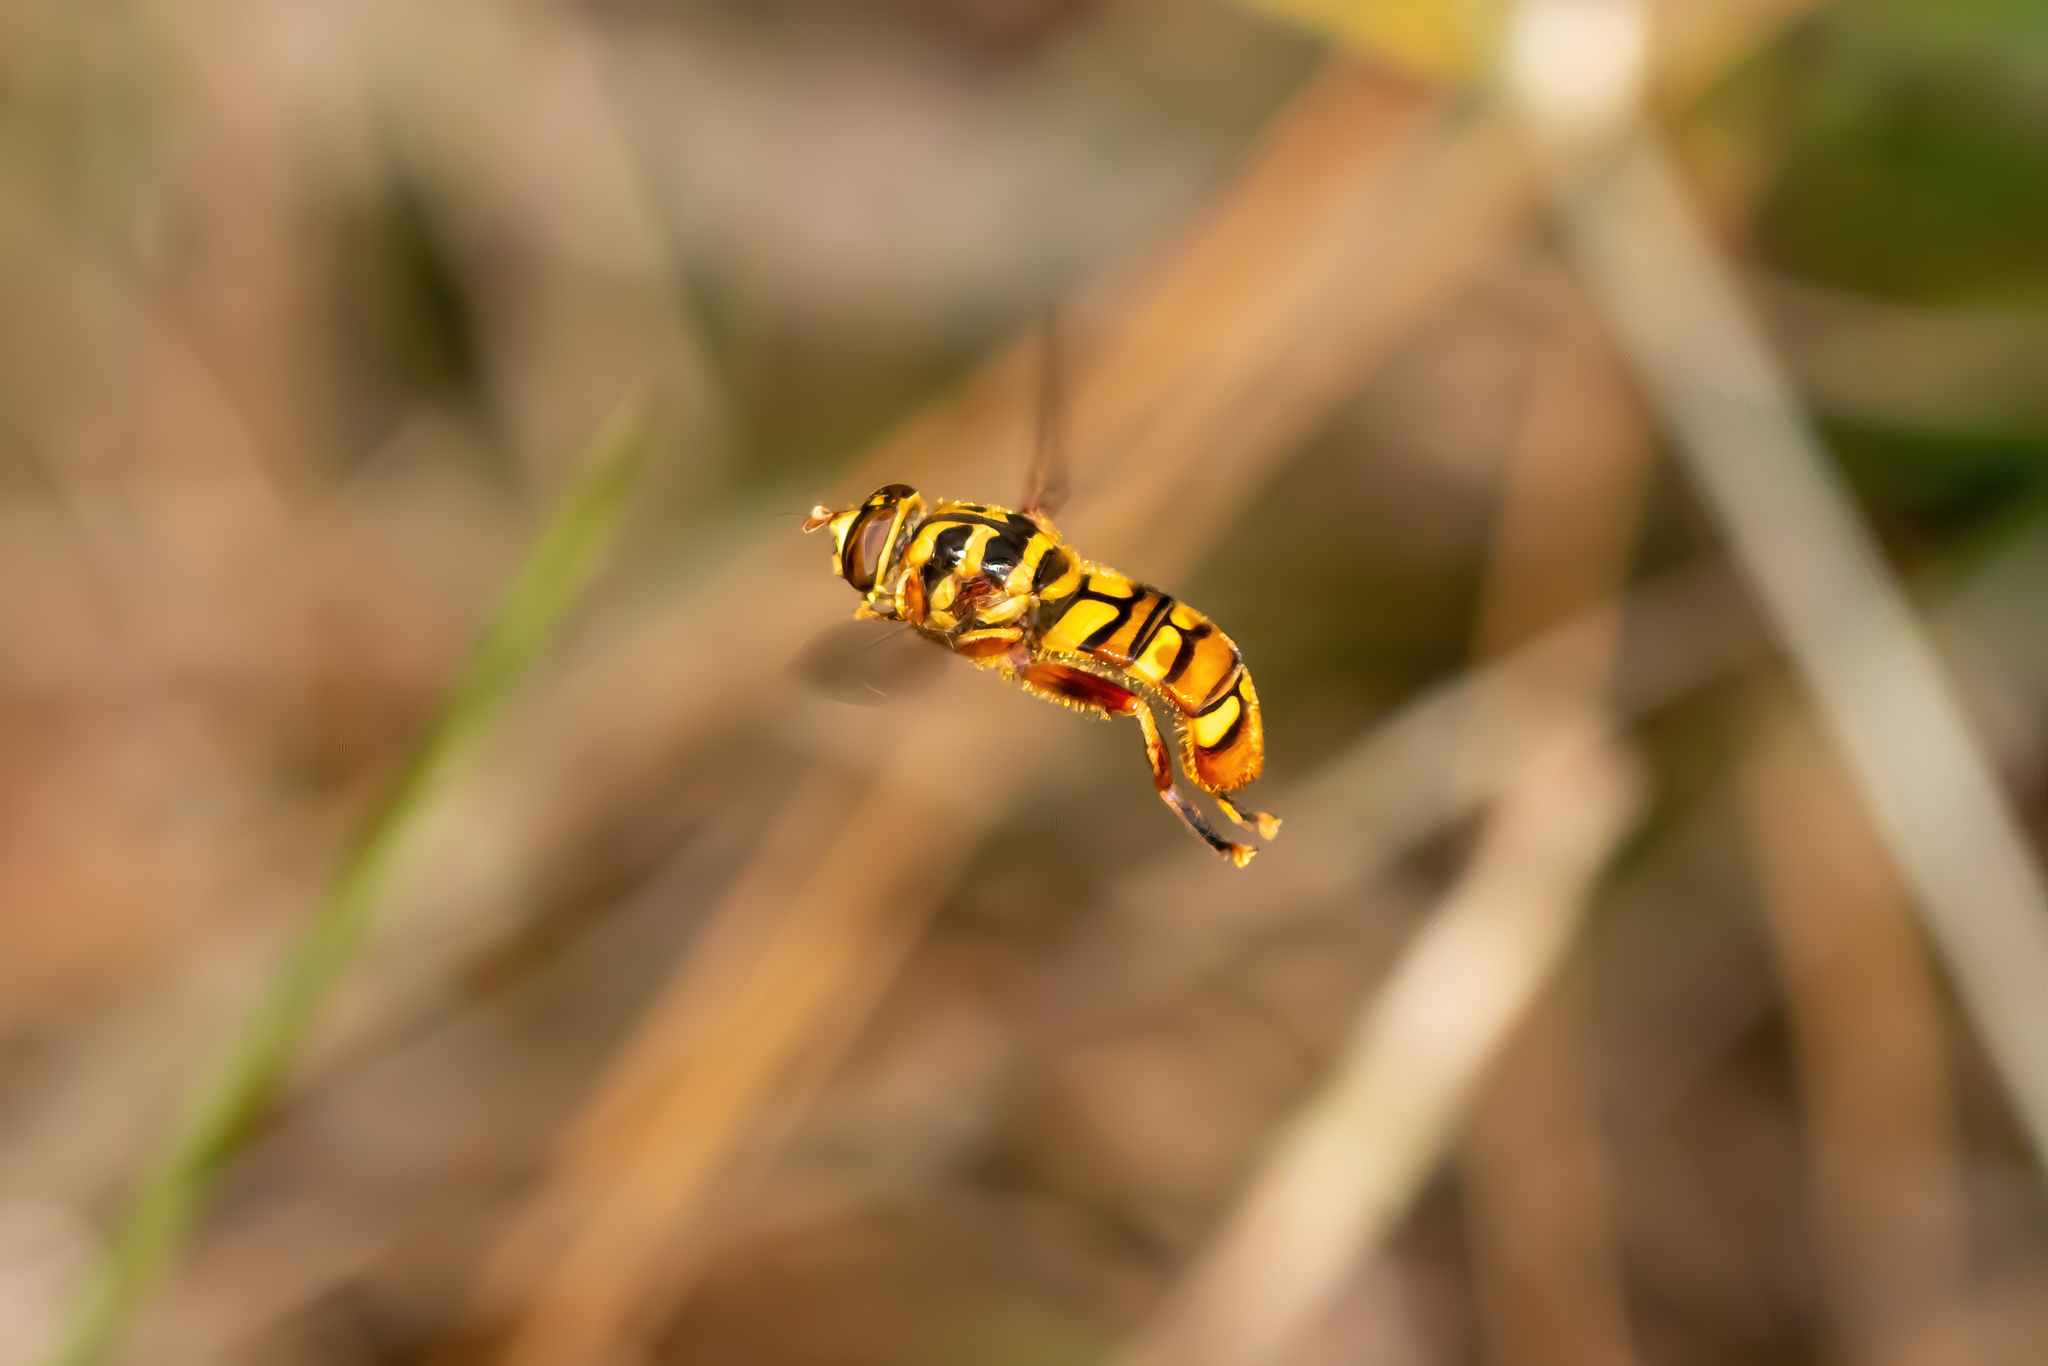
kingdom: Animalia
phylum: Arthropoda
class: Insecta
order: Diptera
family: Syrphidae
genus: Milesia
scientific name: Milesia virginiensis
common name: Virginia giant
